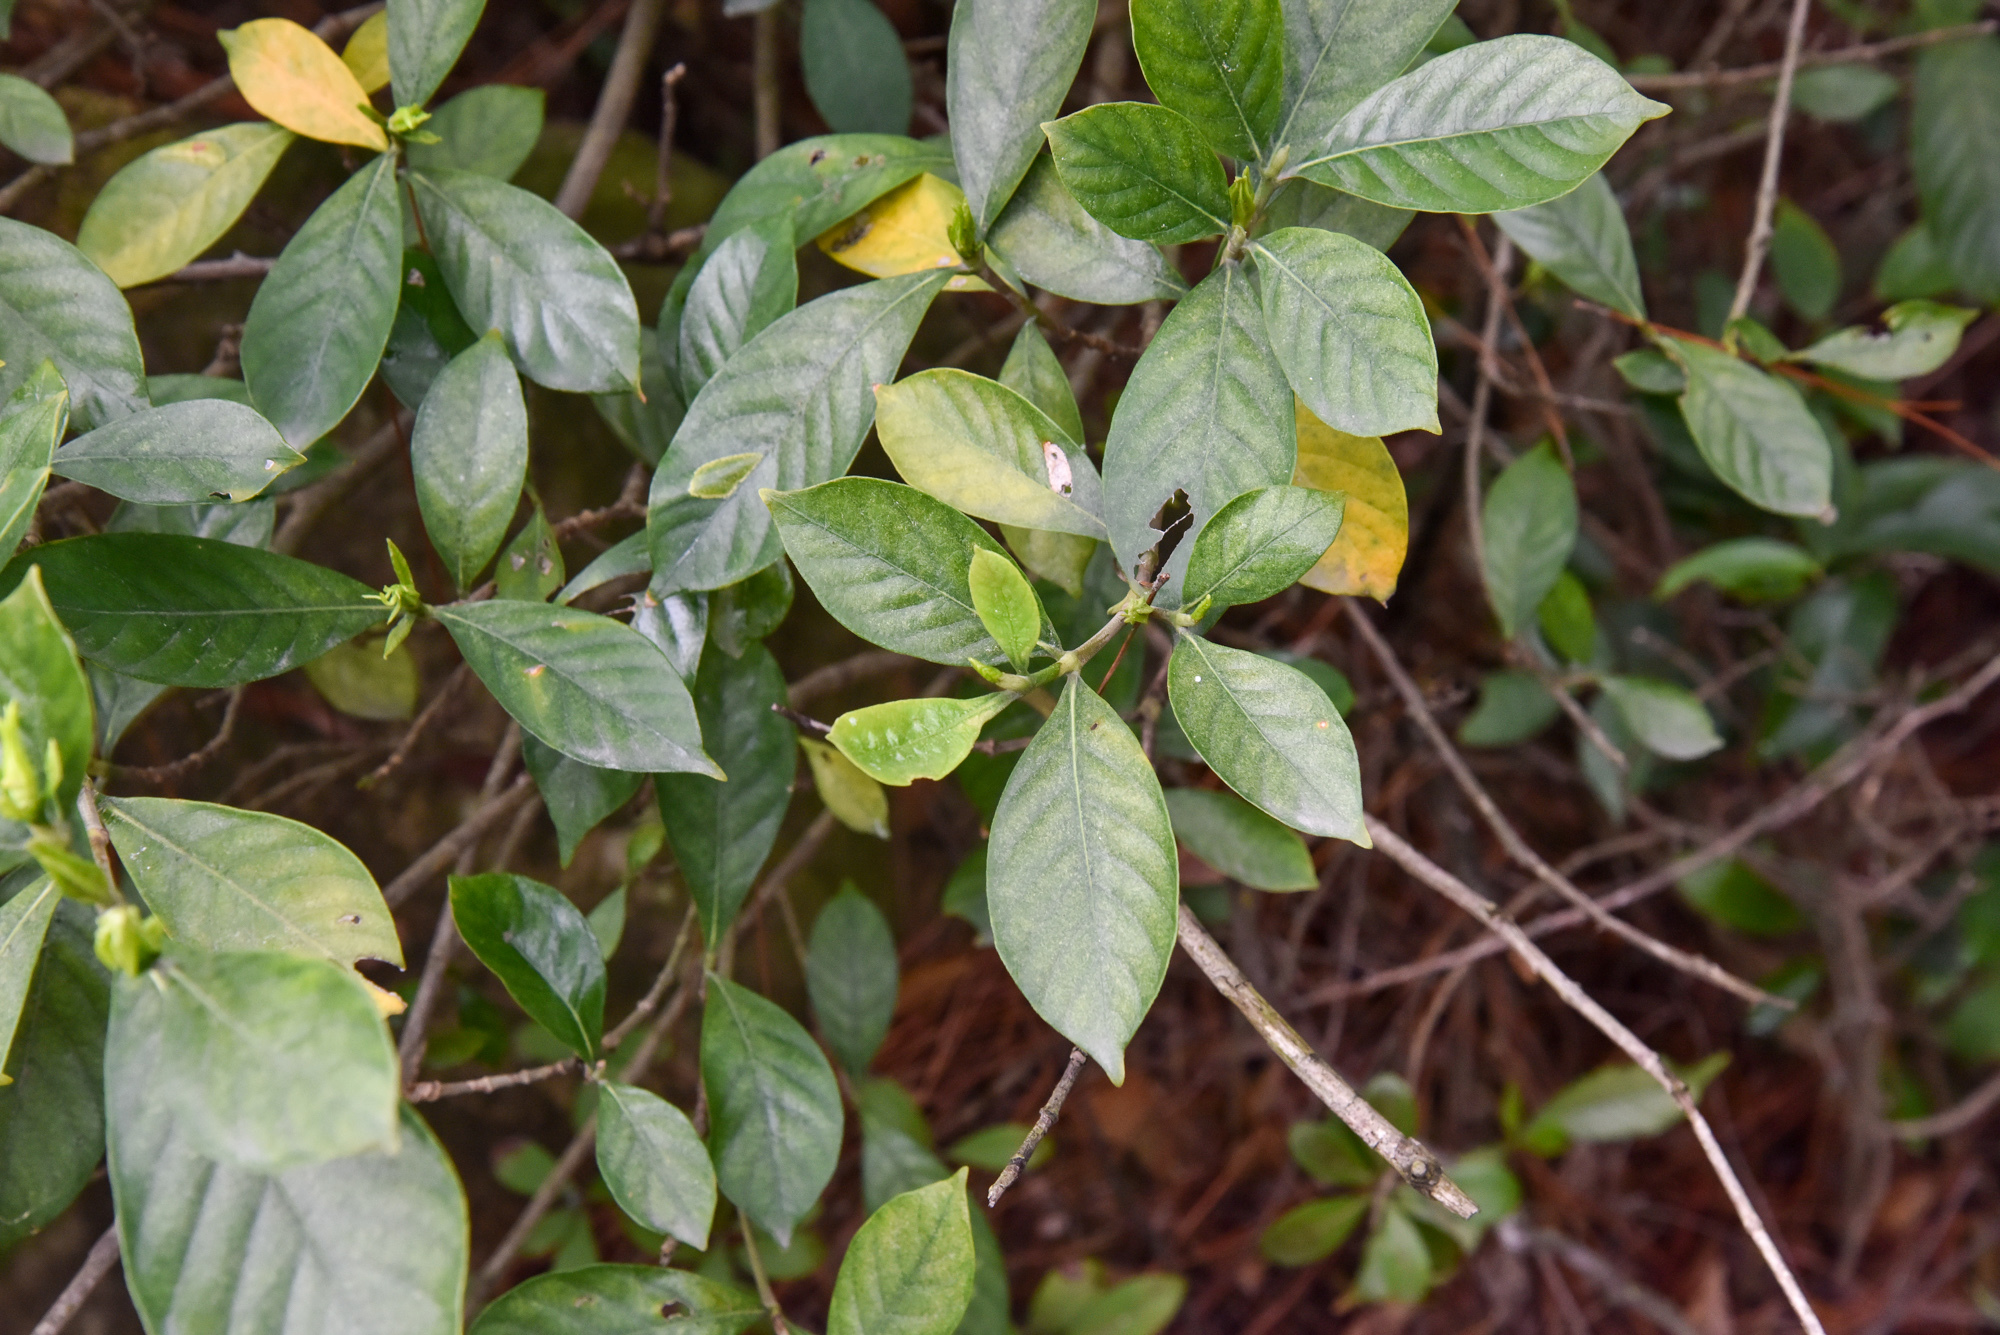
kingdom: Plantae
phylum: Tracheophyta
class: Magnoliopsida
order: Gentianales
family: Rubiaceae
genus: Gardenia
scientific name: Gardenia jasminoides
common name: Cape-jasmine
